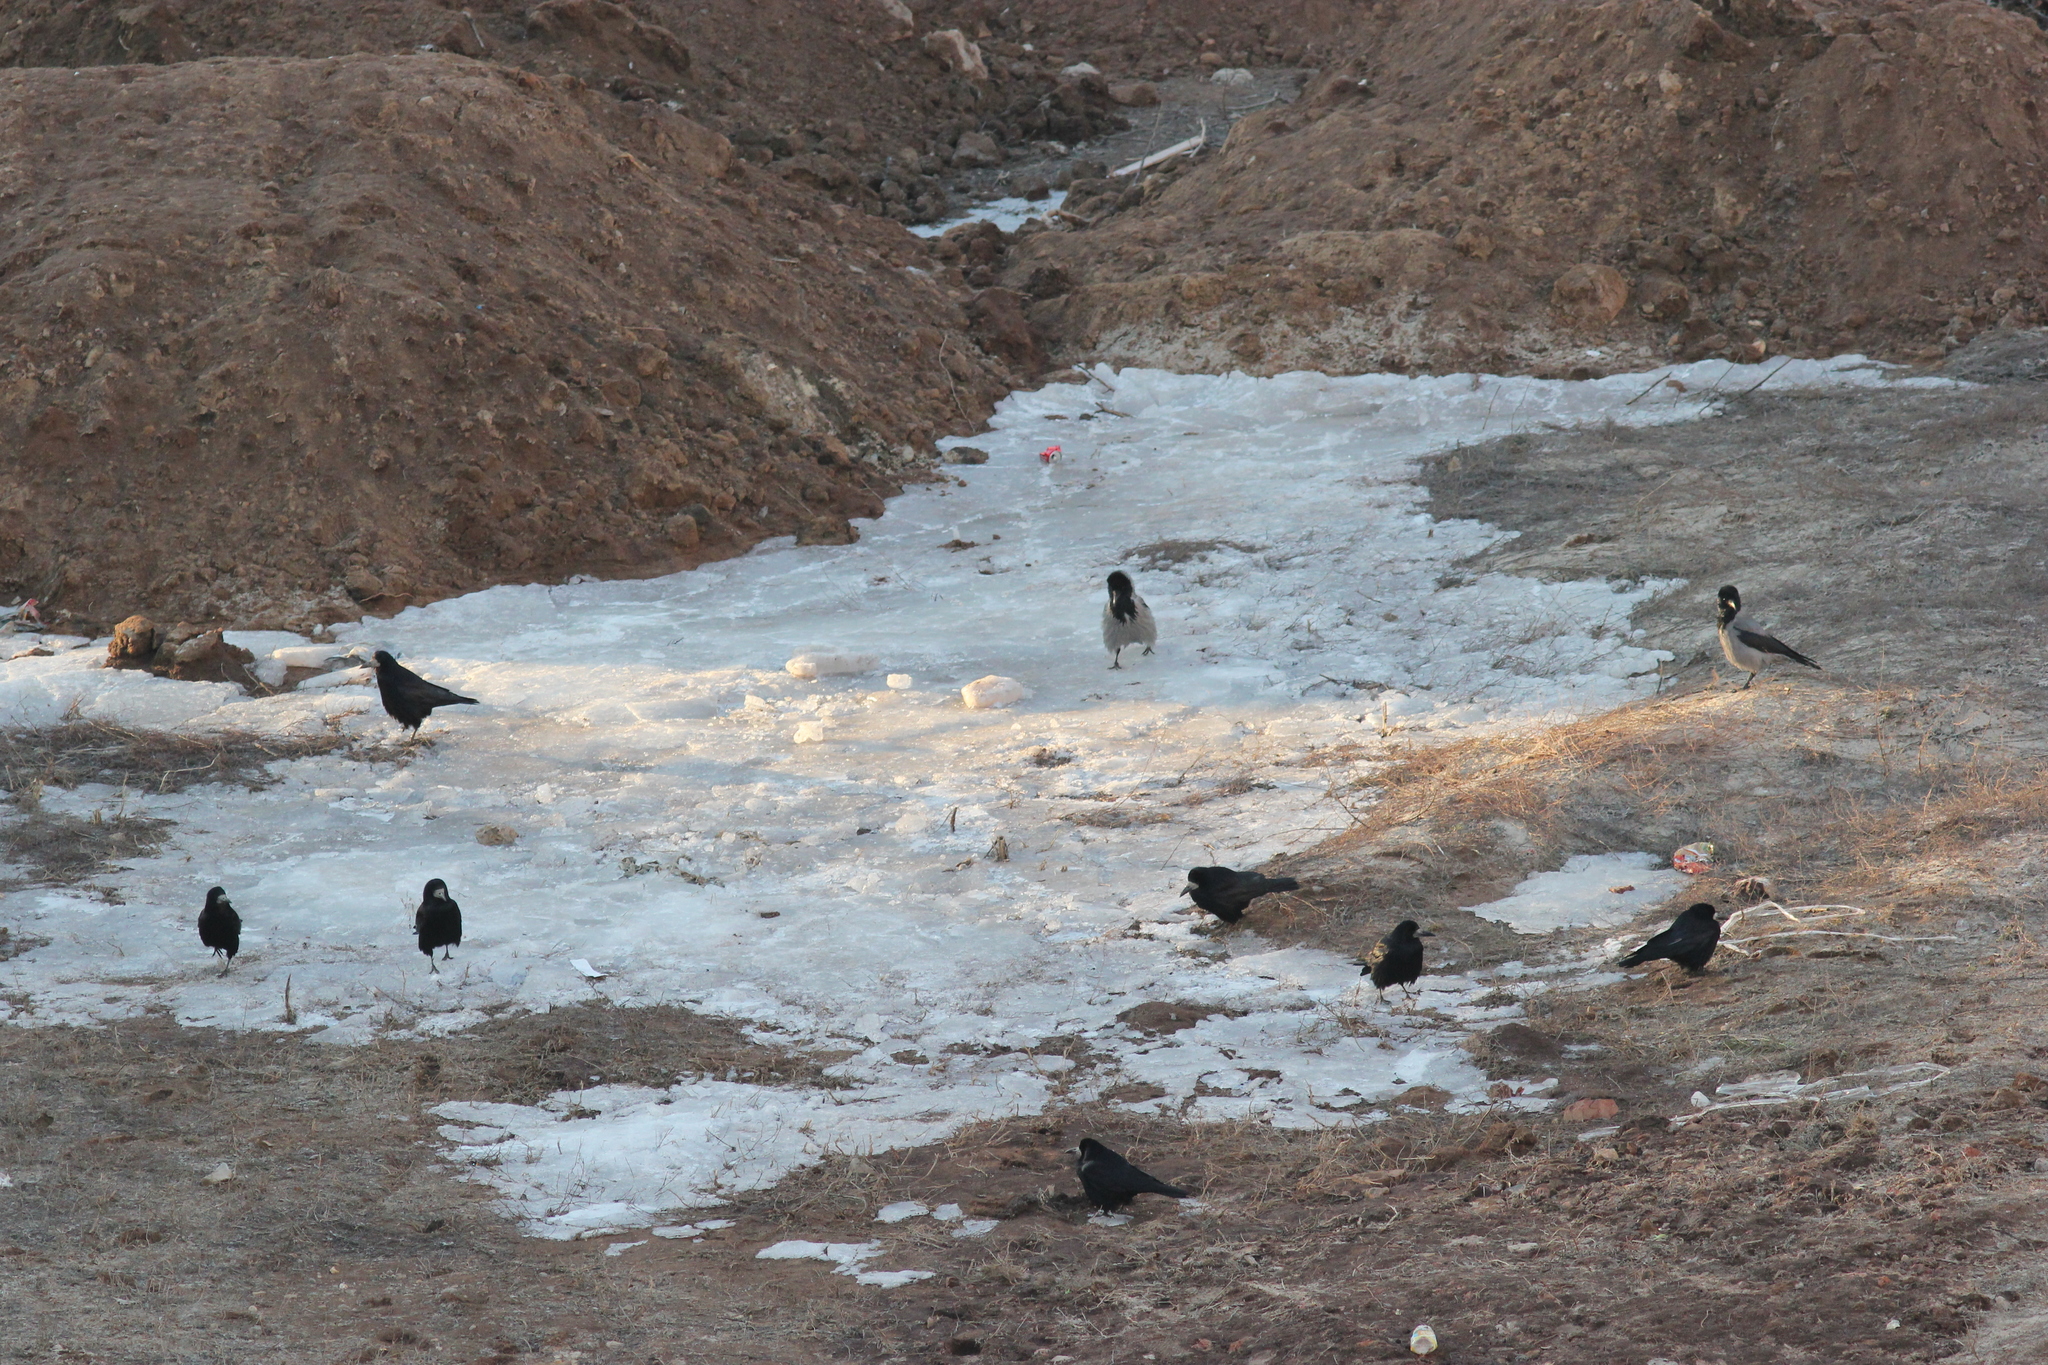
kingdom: Animalia
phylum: Chordata
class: Aves
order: Passeriformes
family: Corvidae
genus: Corvus
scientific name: Corvus frugilegus
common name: Rook
